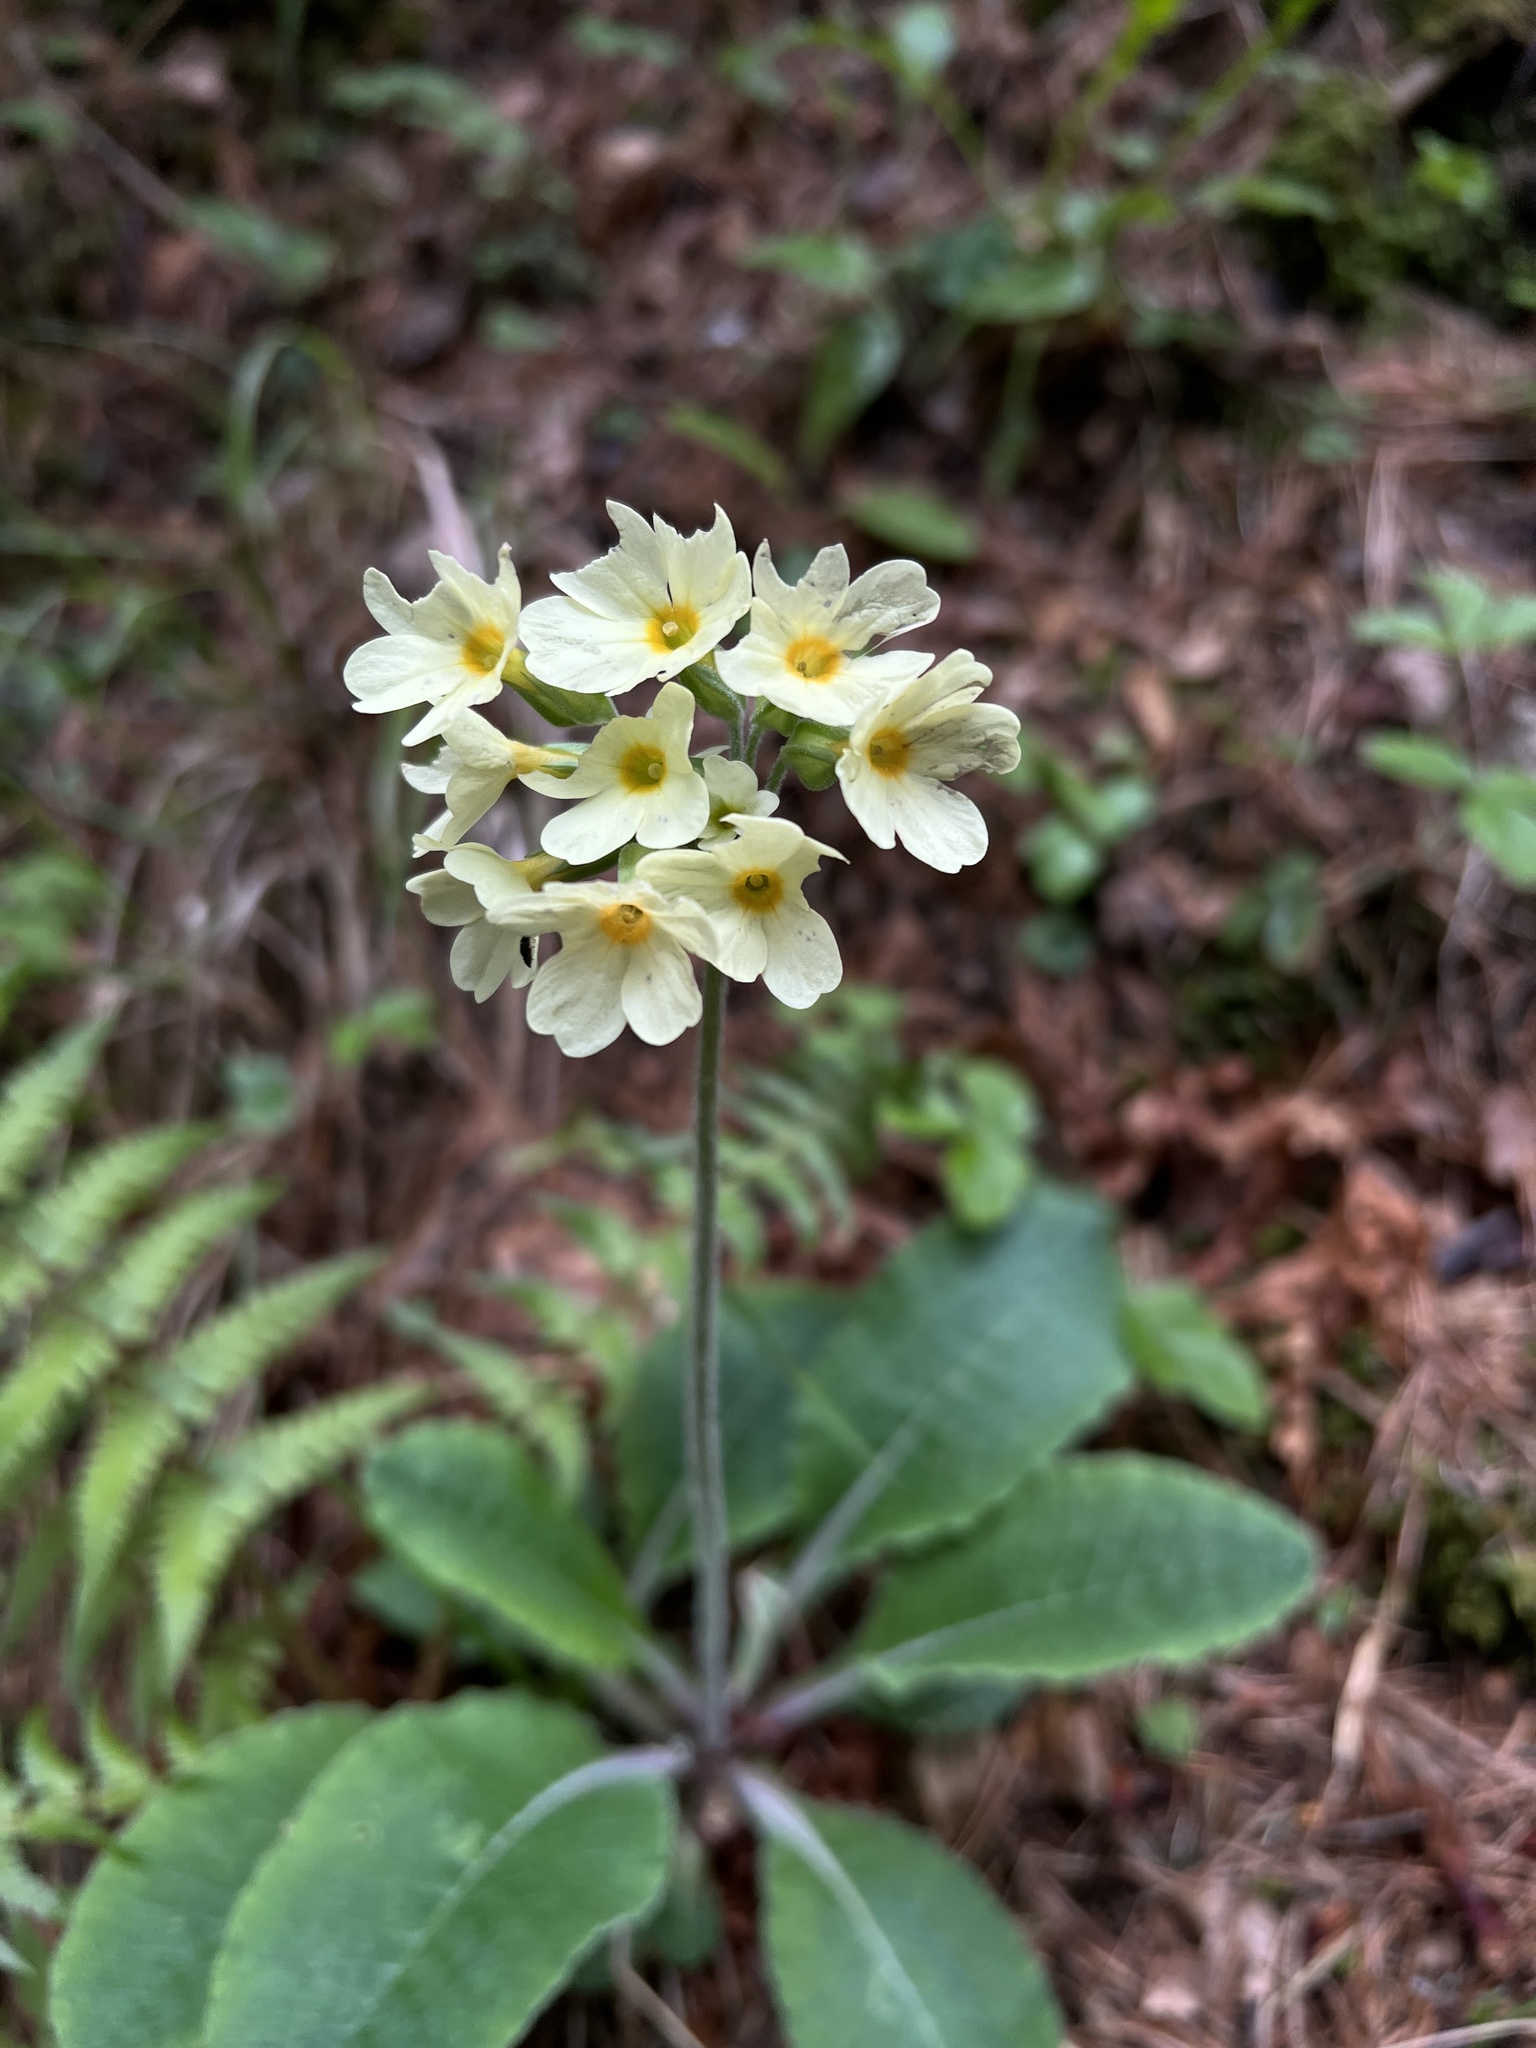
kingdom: Plantae
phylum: Tracheophyta
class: Magnoliopsida
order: Ericales
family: Primulaceae
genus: Primula
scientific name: Primula elatior
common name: Oxlip
